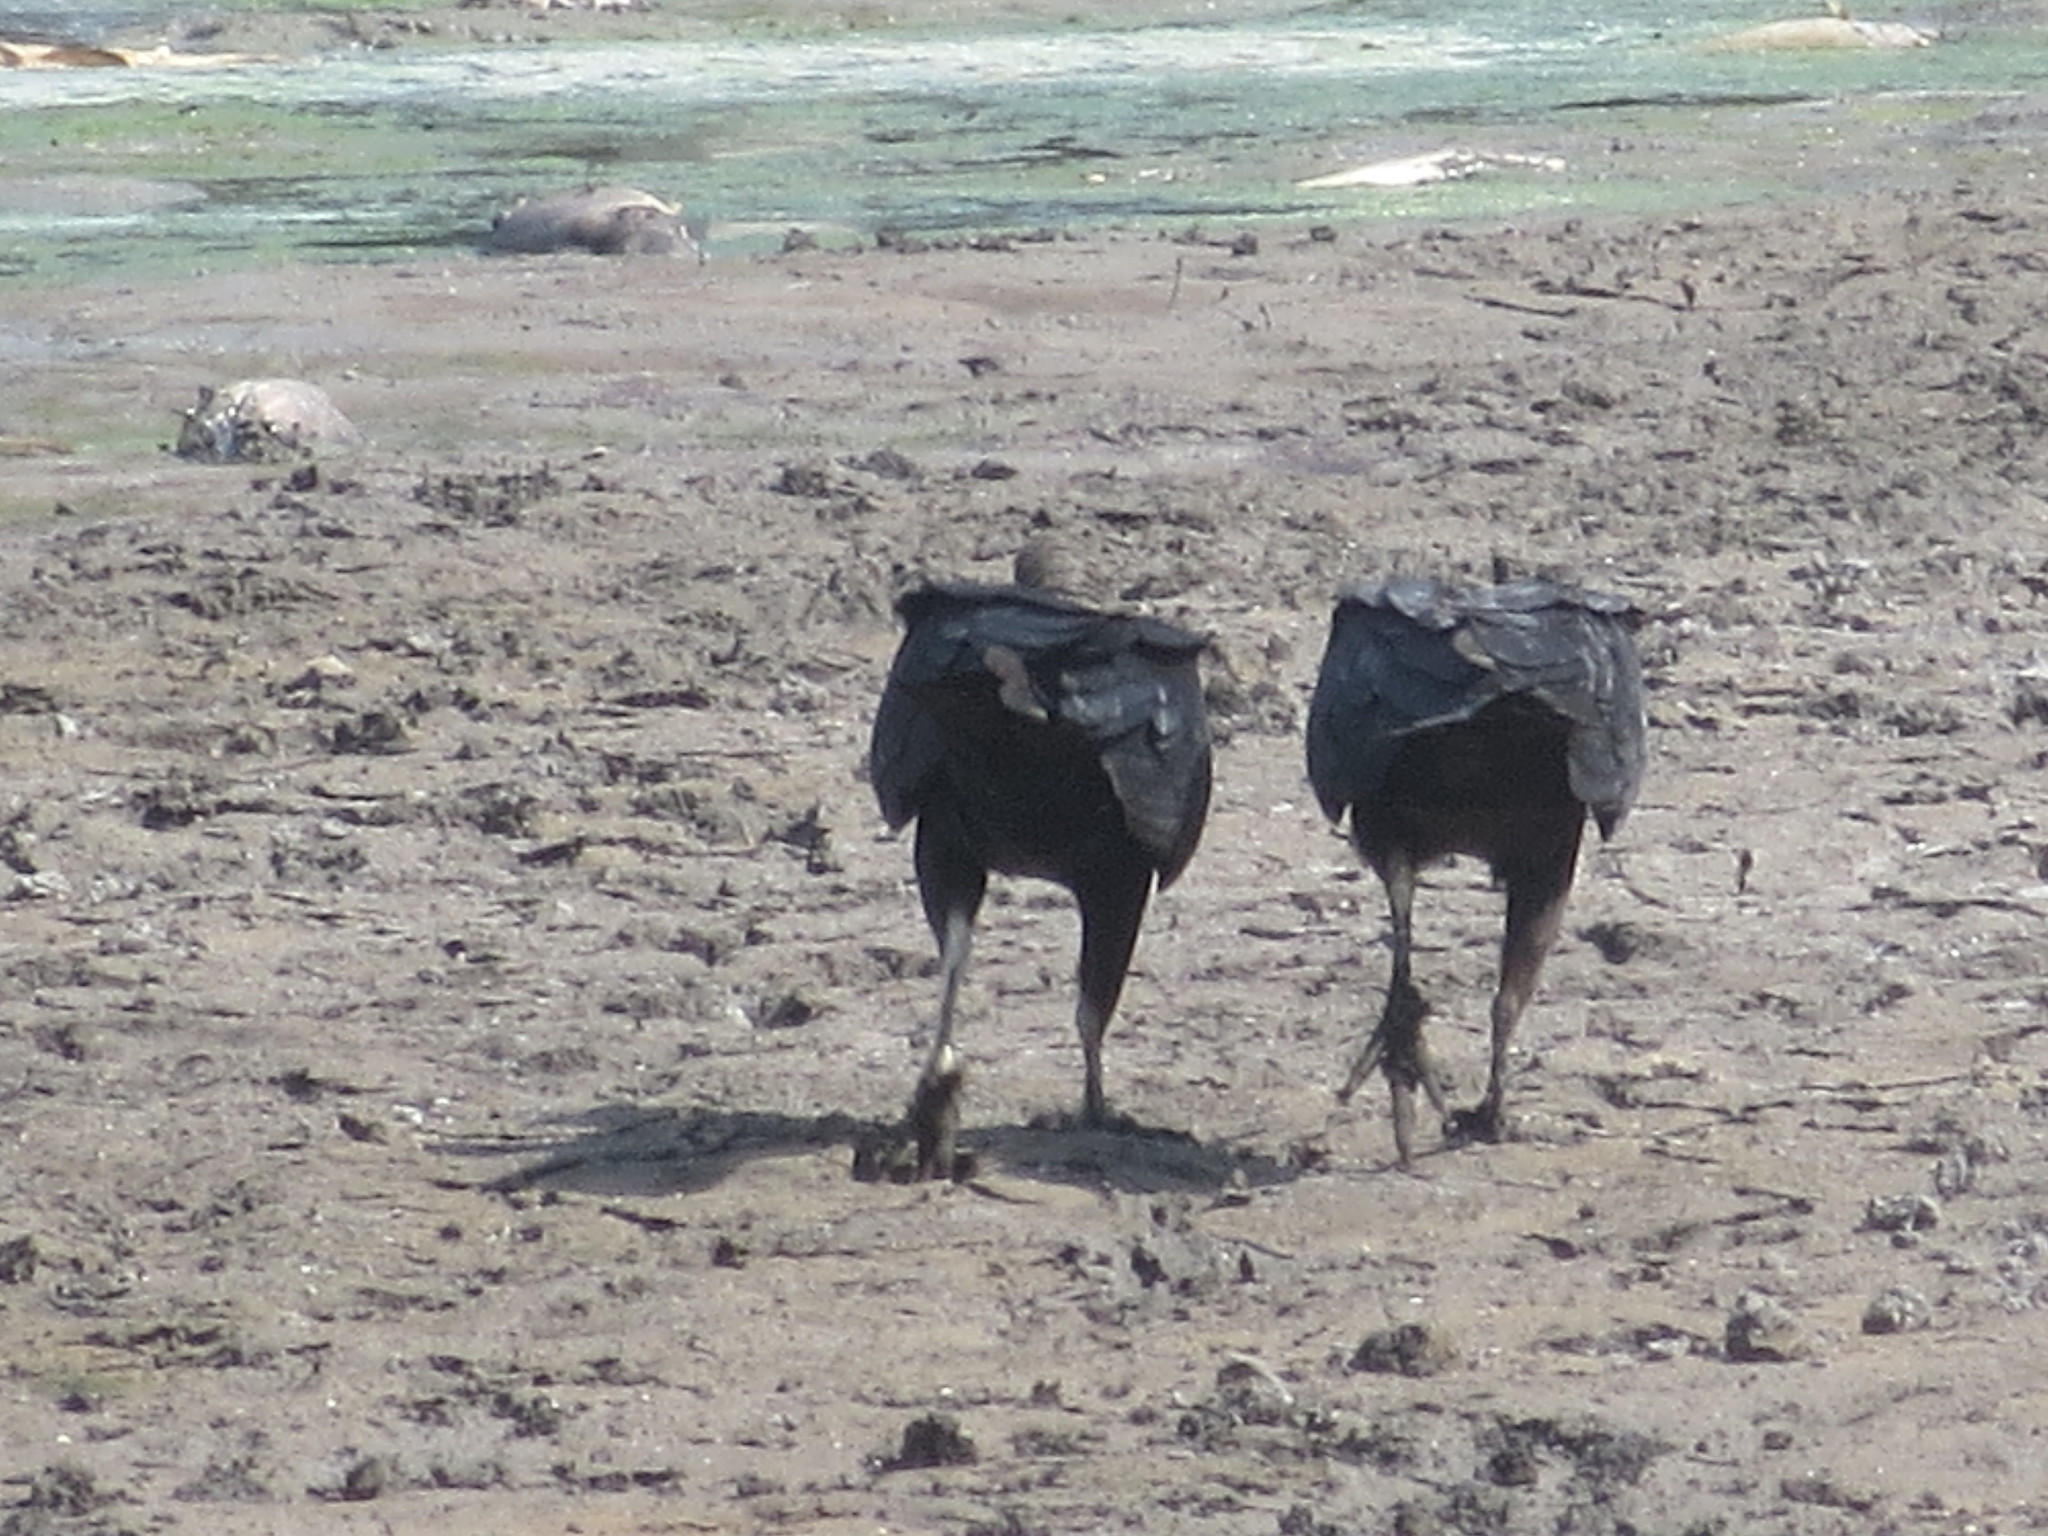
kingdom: Animalia
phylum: Chordata
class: Aves
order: Accipitriformes
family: Cathartidae
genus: Coragyps
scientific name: Coragyps atratus
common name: Black vulture
